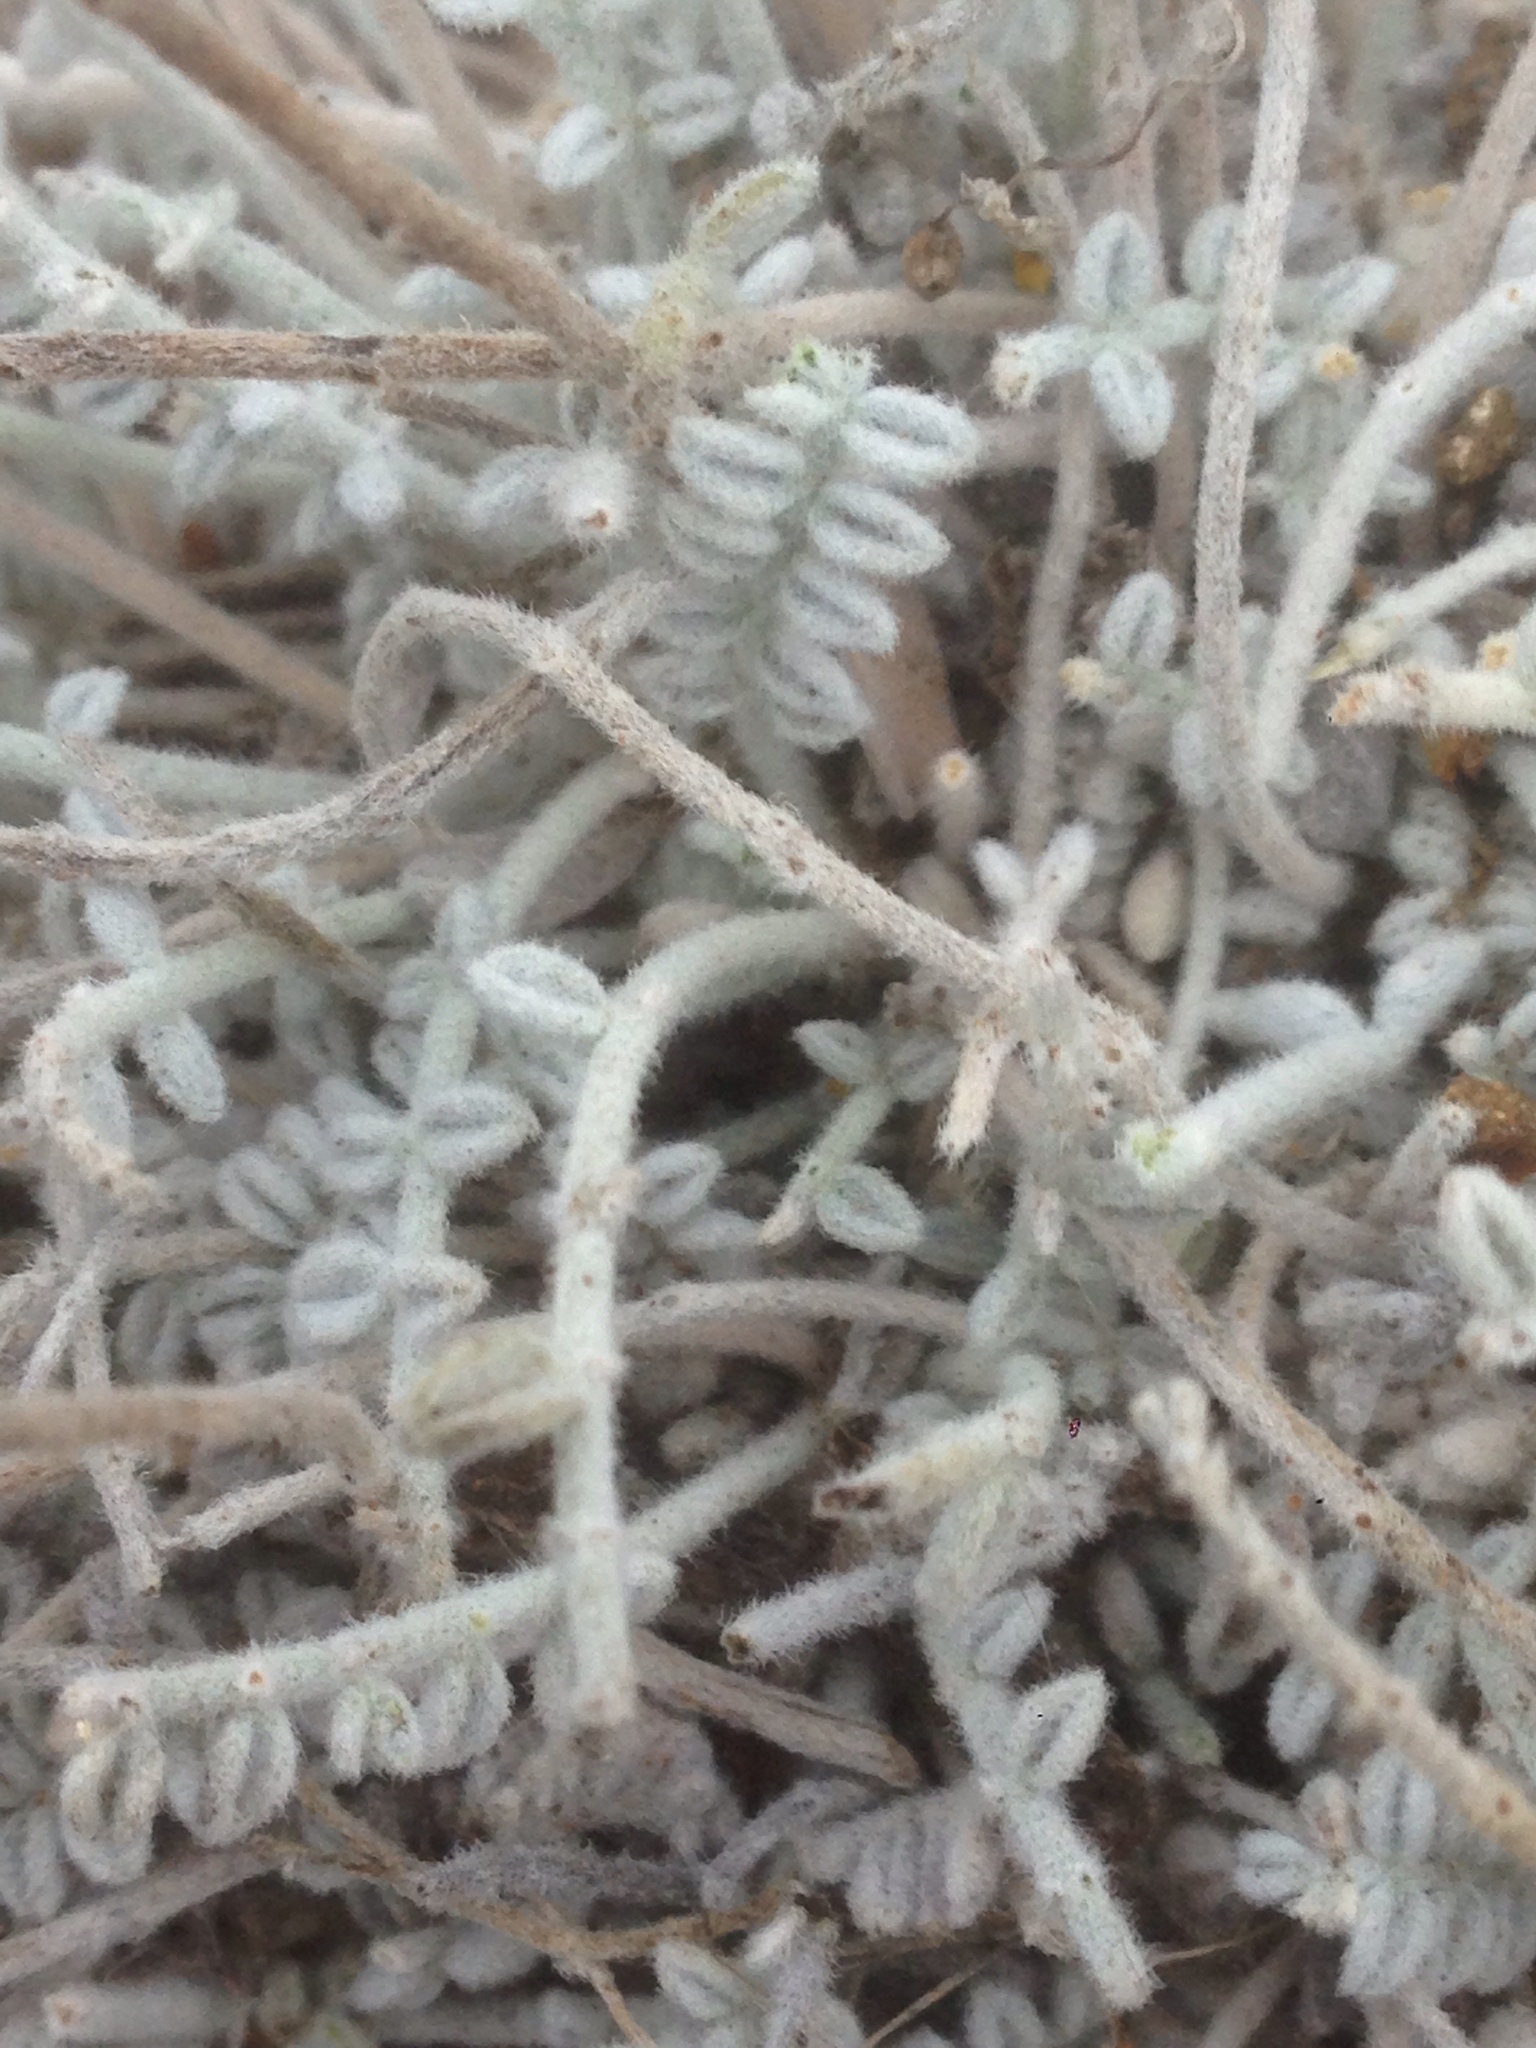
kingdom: Plantae
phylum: Tracheophyta
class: Magnoliopsida
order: Fabales
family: Fabaceae
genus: Astragalus
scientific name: Astragalus traskiae
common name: Trask's milk-vetch
